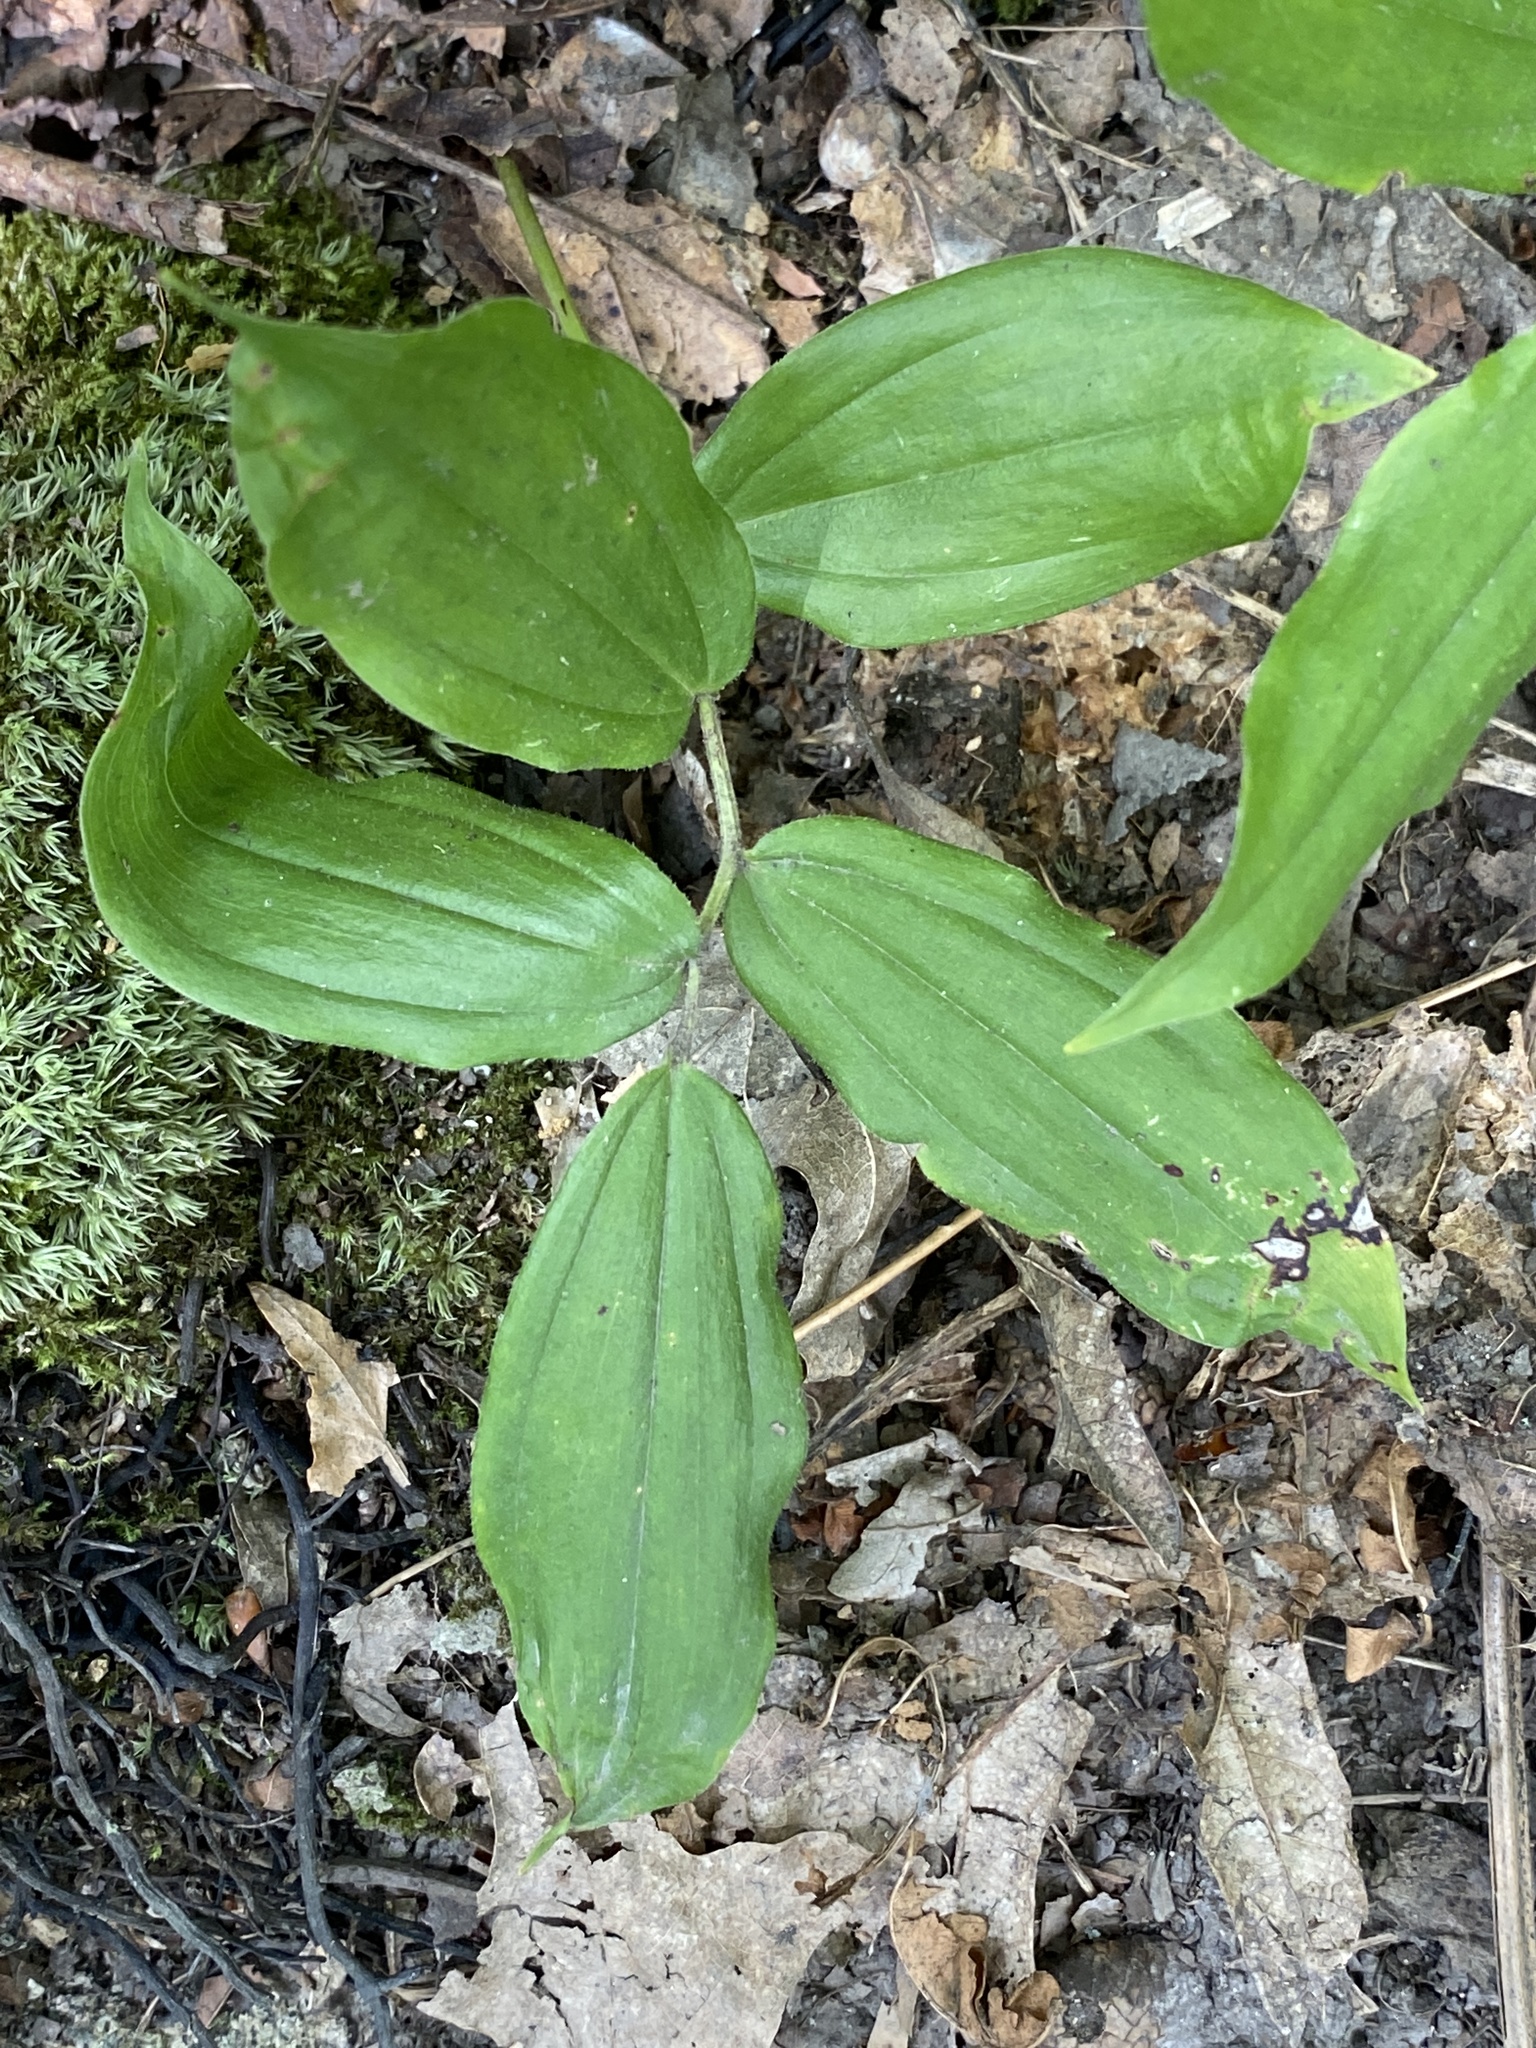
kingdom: Plantae
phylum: Tracheophyta
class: Liliopsida
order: Asparagales
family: Asparagaceae
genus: Maianthemum
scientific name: Maianthemum racemosum
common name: False spikenard
